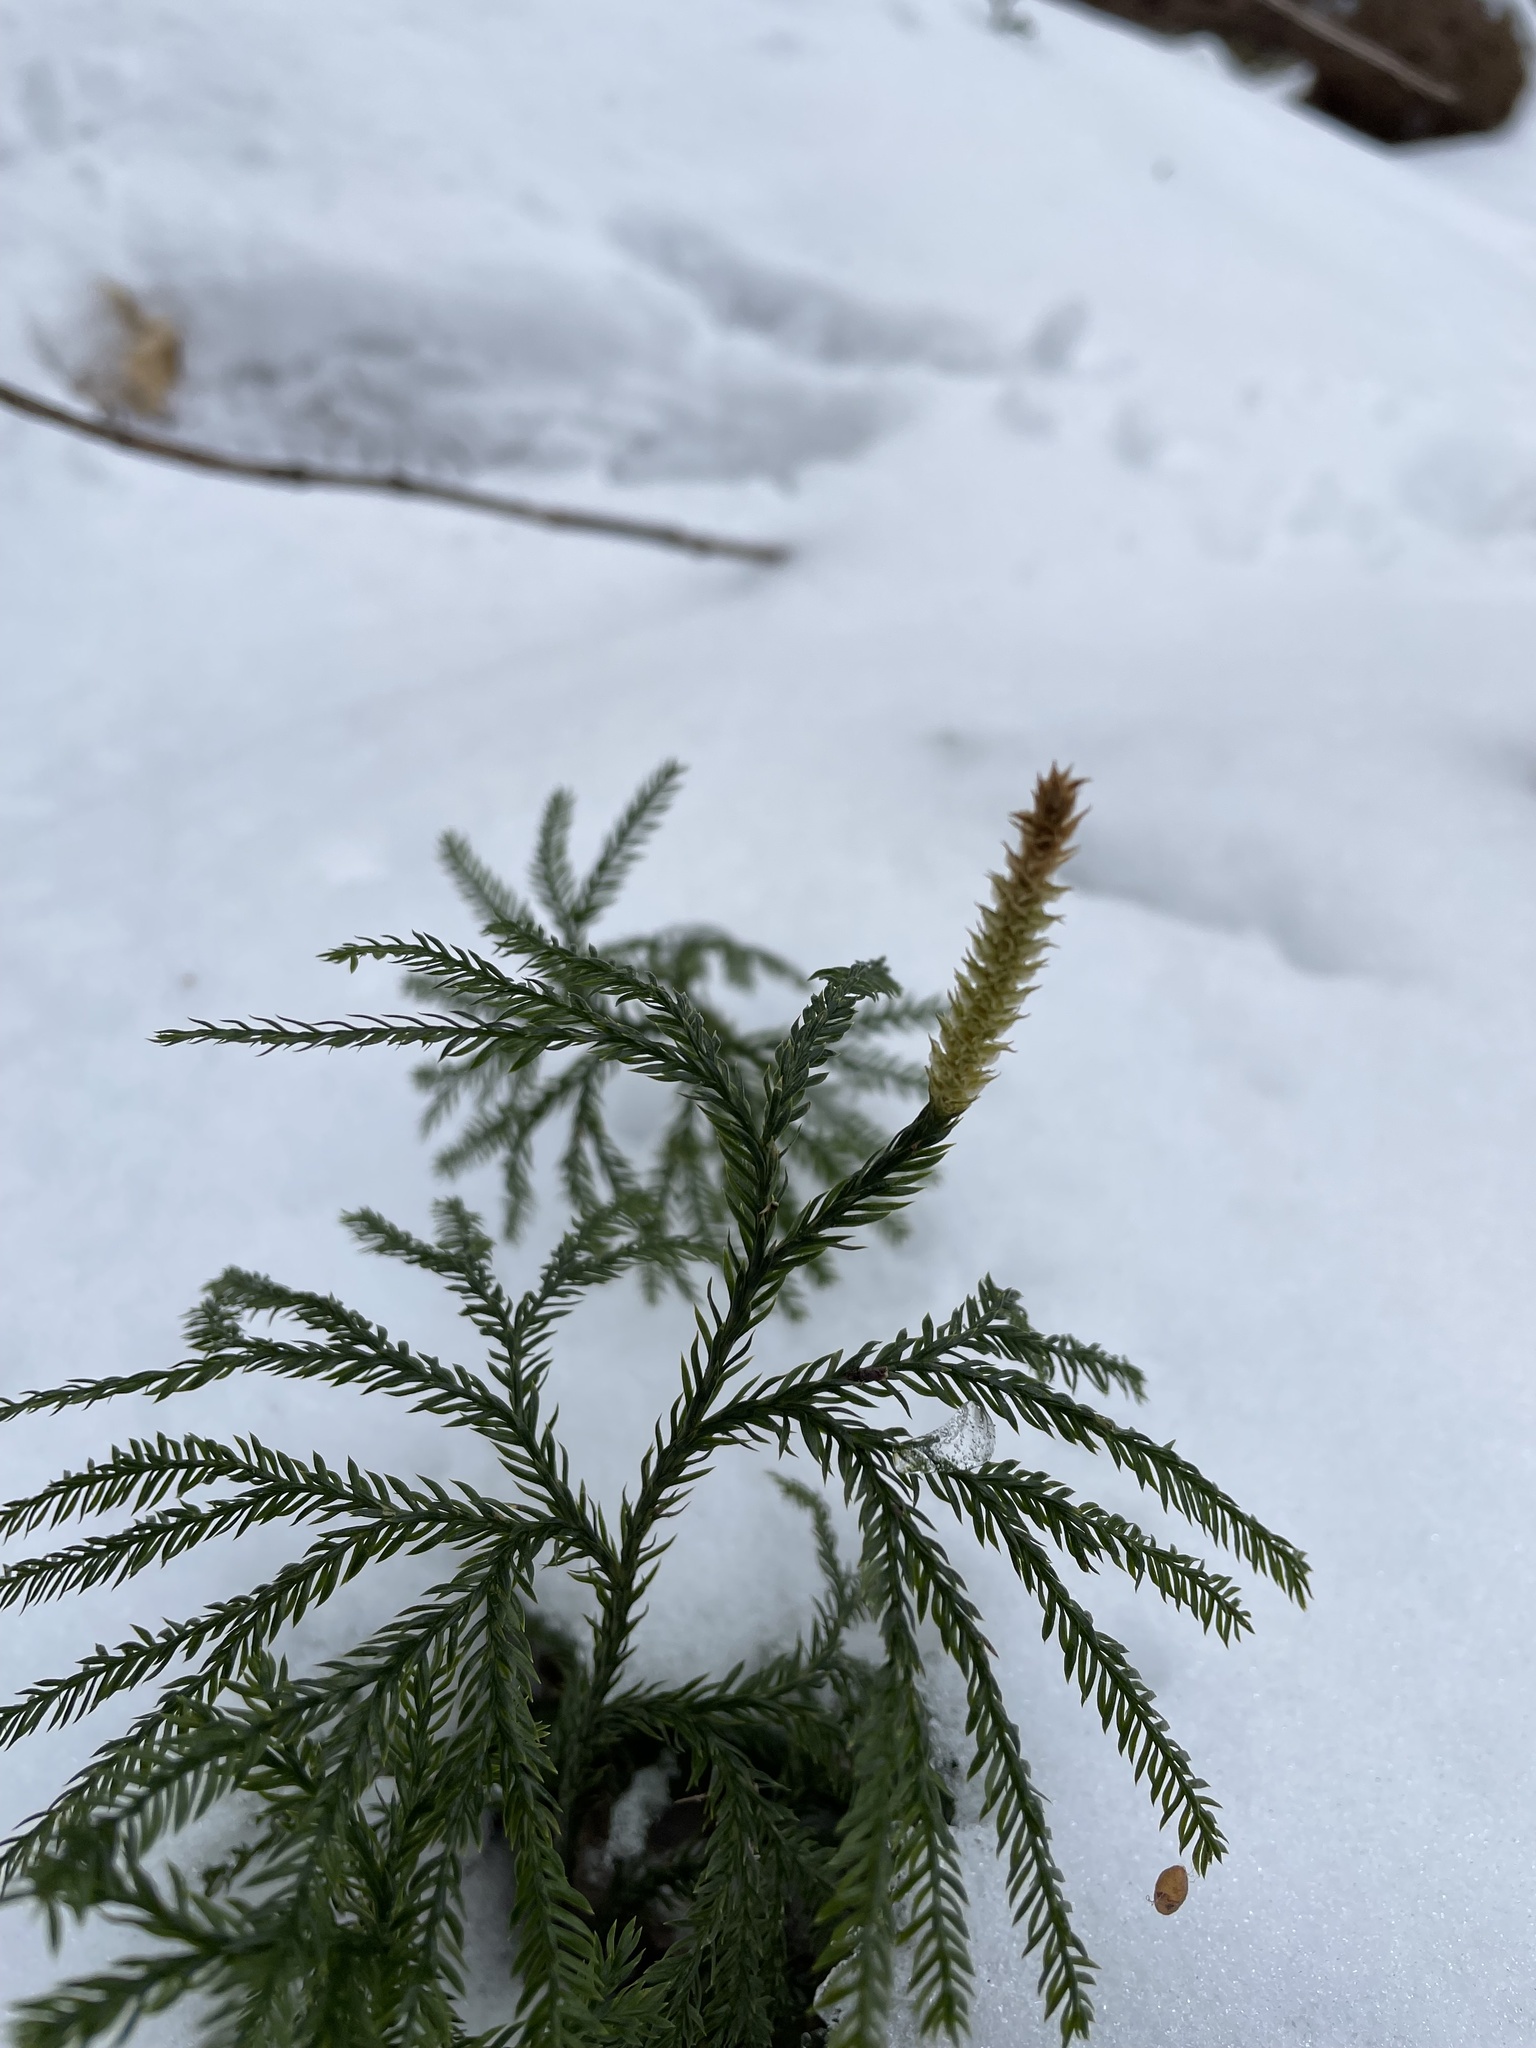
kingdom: Plantae
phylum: Tracheophyta
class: Lycopodiopsida
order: Lycopodiales
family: Lycopodiaceae
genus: Dendrolycopodium
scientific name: Dendrolycopodium dendroideum
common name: Northern tree-clubmoss
